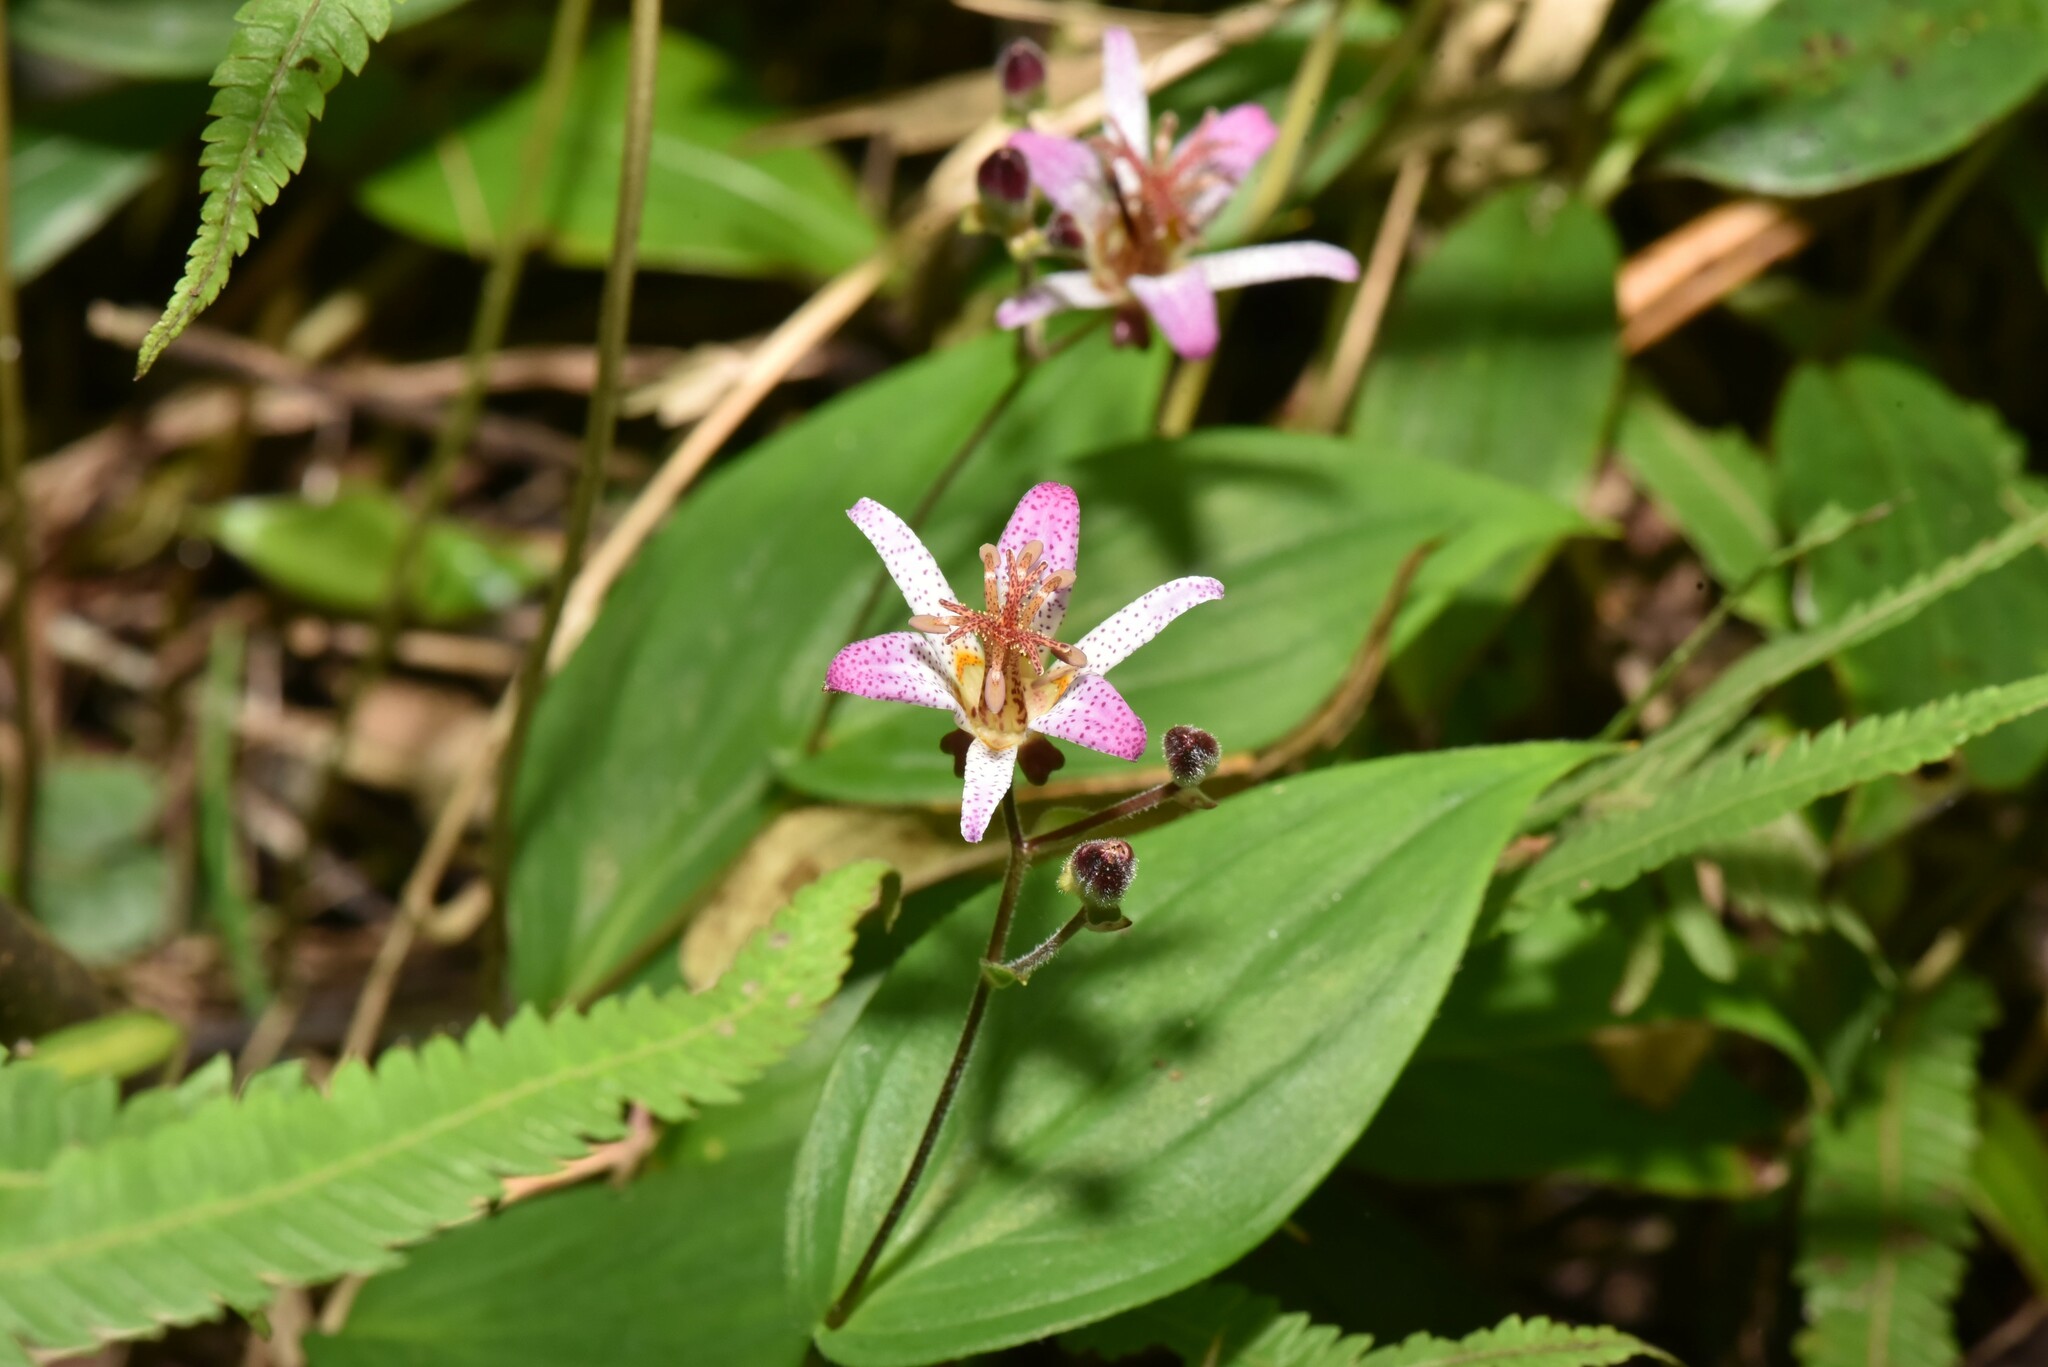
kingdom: Plantae
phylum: Tracheophyta
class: Liliopsida
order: Liliales
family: Liliaceae
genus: Tricyrtis
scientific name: Tricyrtis formosana
